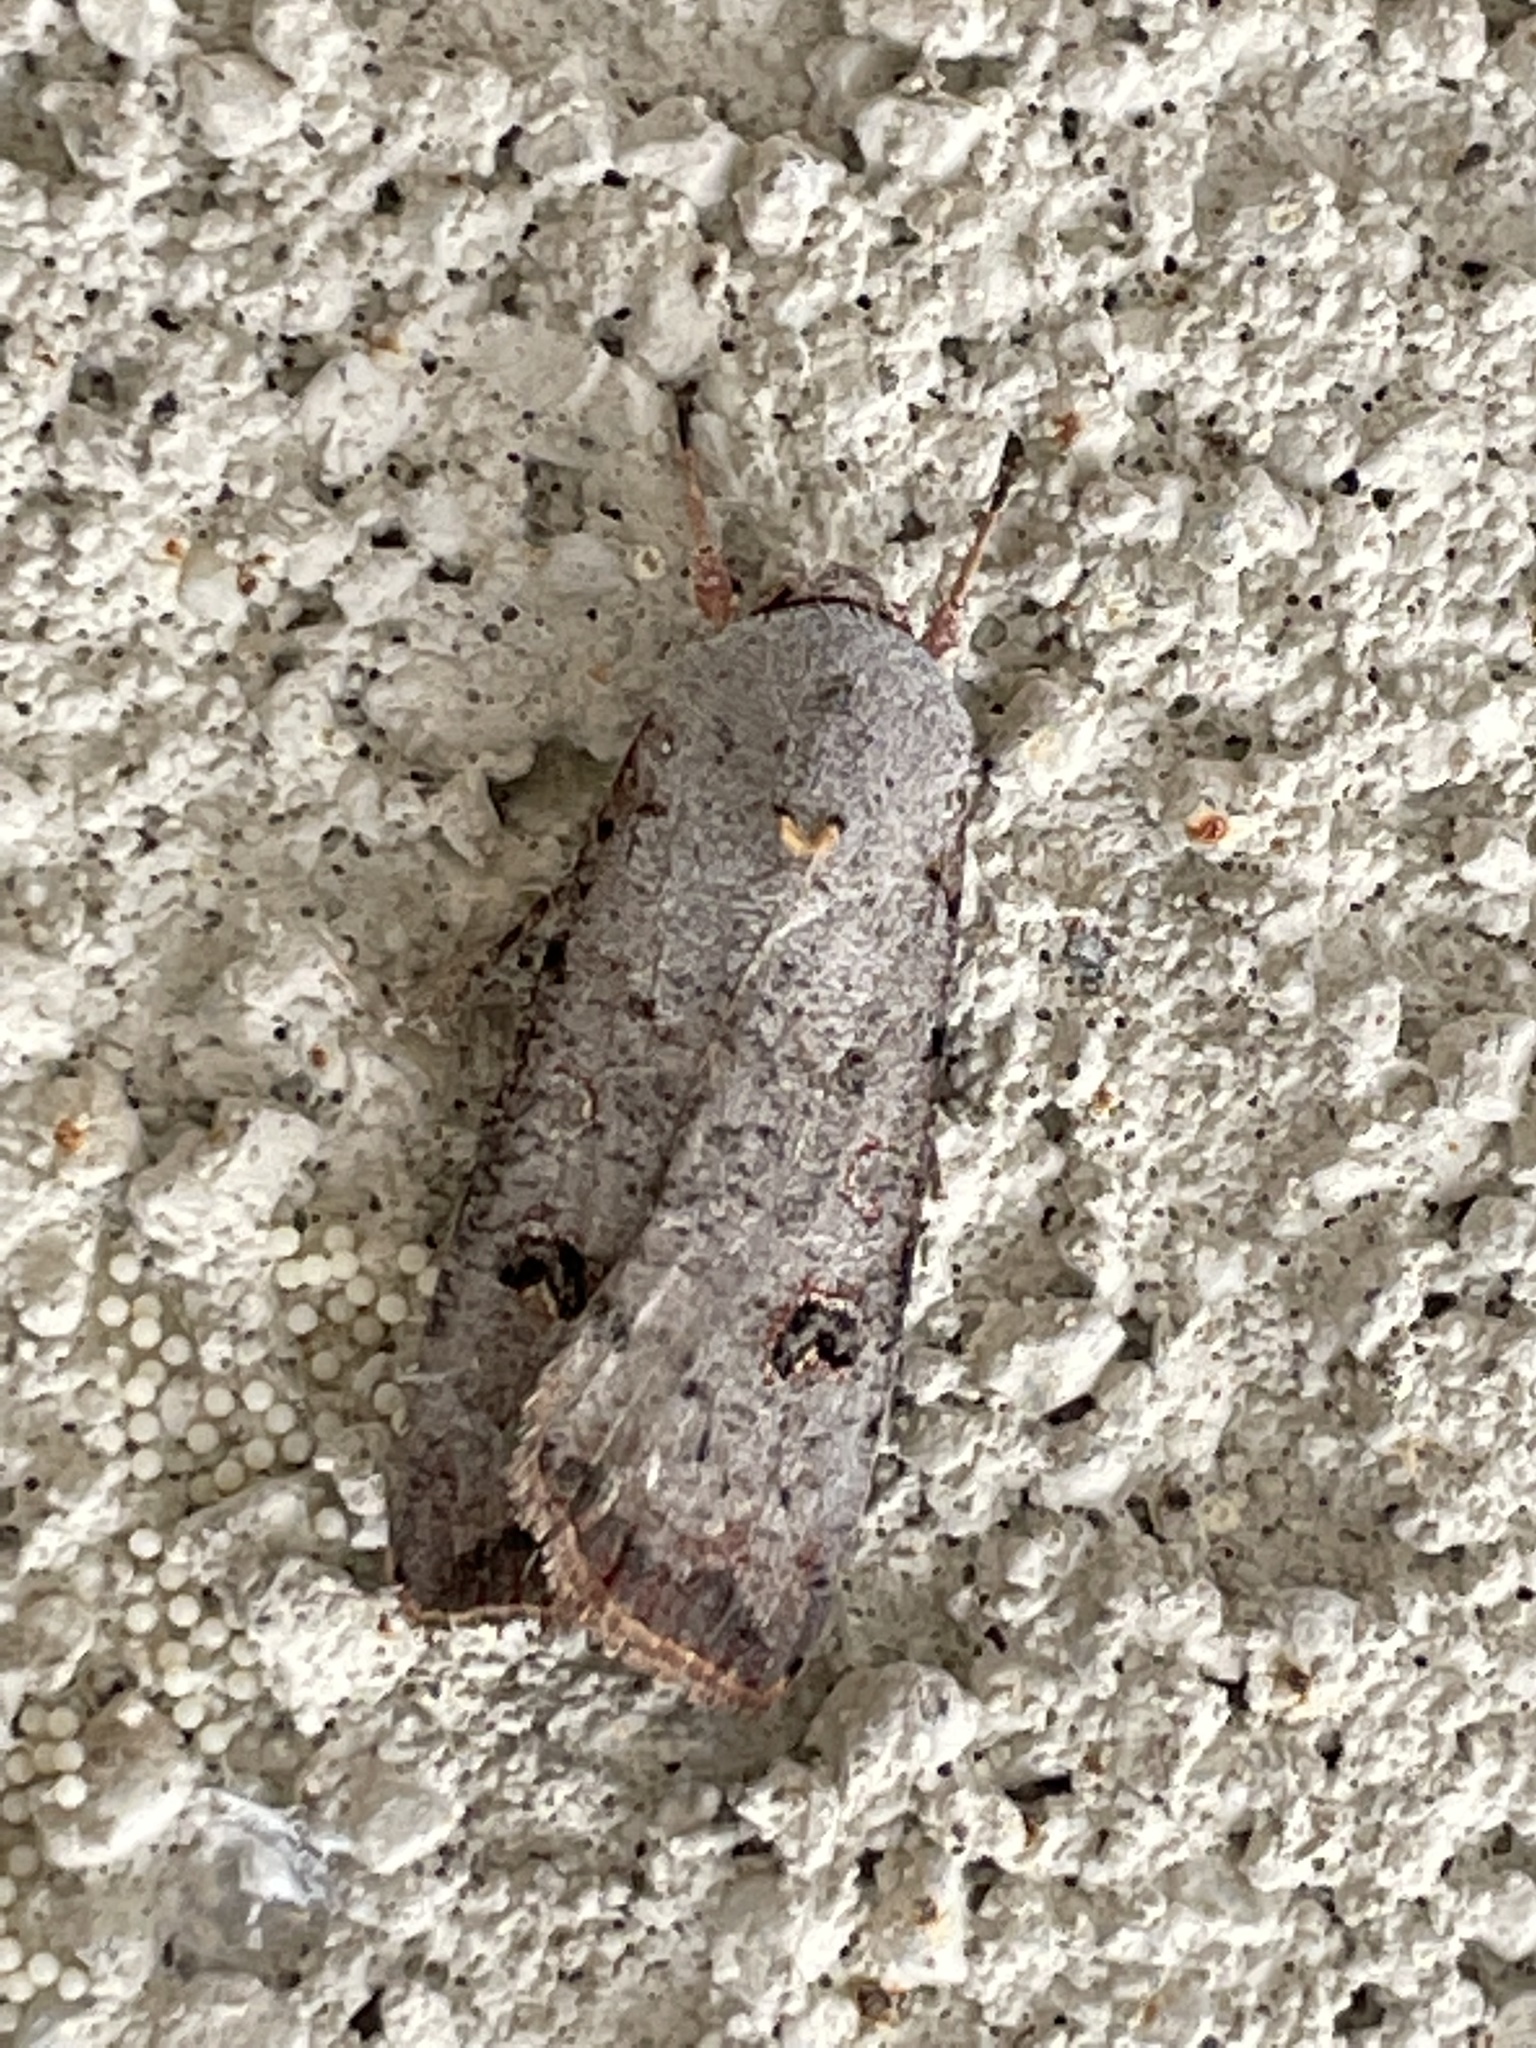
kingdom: Animalia
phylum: Arthropoda
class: Insecta
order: Lepidoptera
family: Noctuidae
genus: Anicla
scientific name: Anicla infecta
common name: Green cutworm
